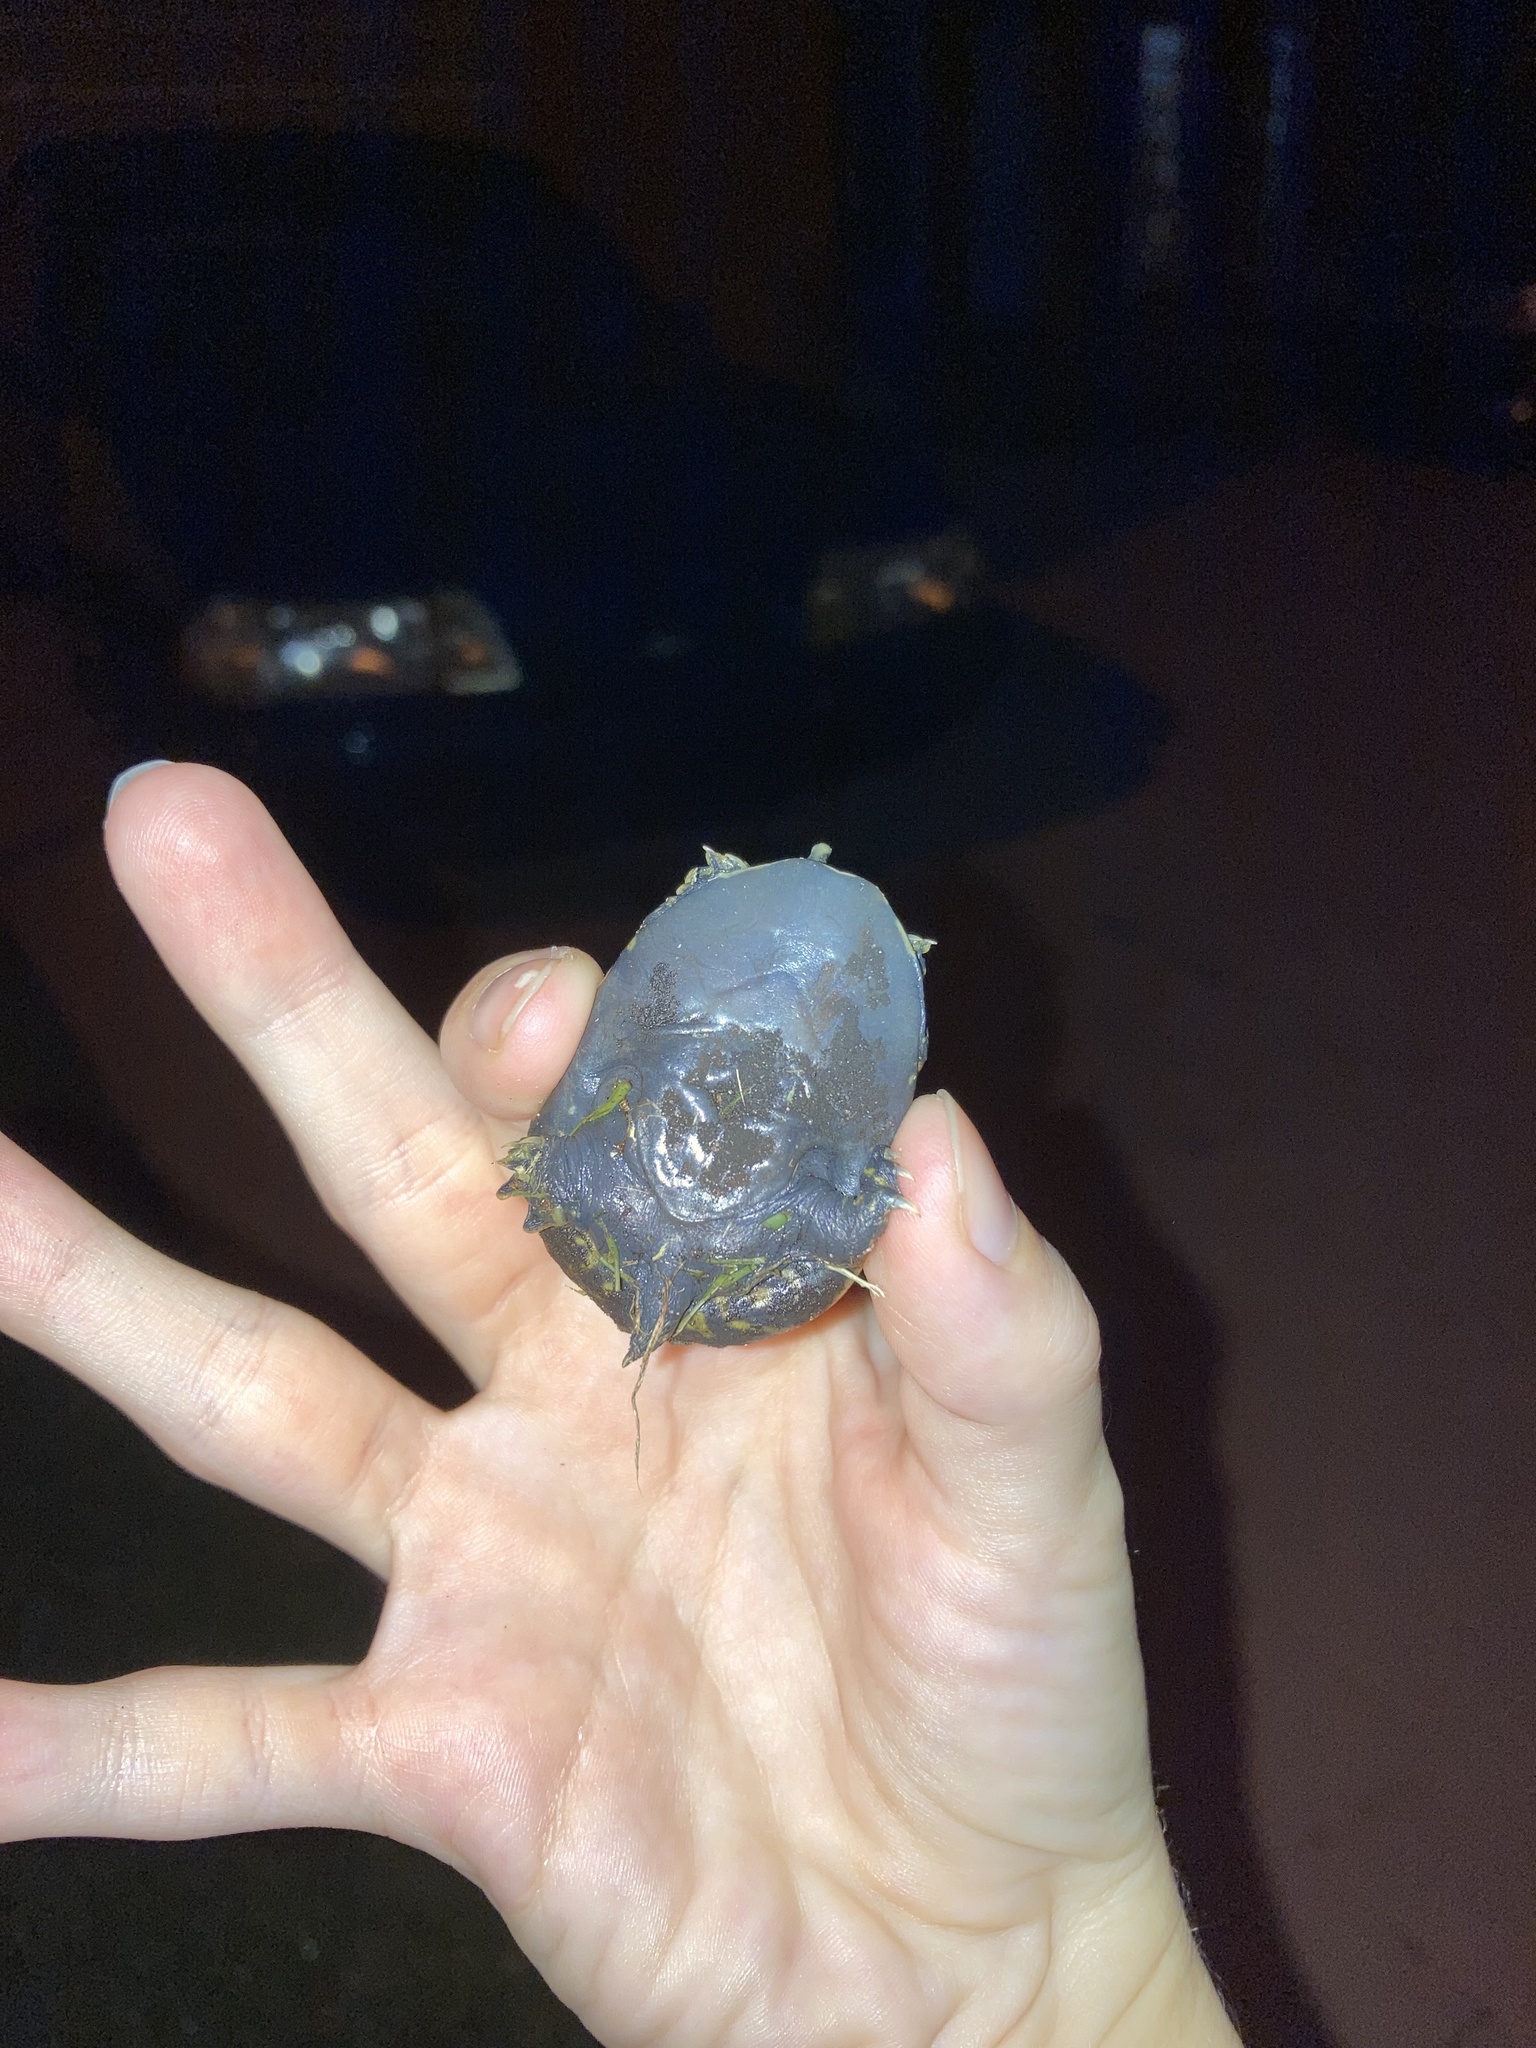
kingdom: Animalia
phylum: Chordata
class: Testudines
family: Trionychidae
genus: Apalone
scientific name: Apalone ferox
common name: Florida softshell turtle
